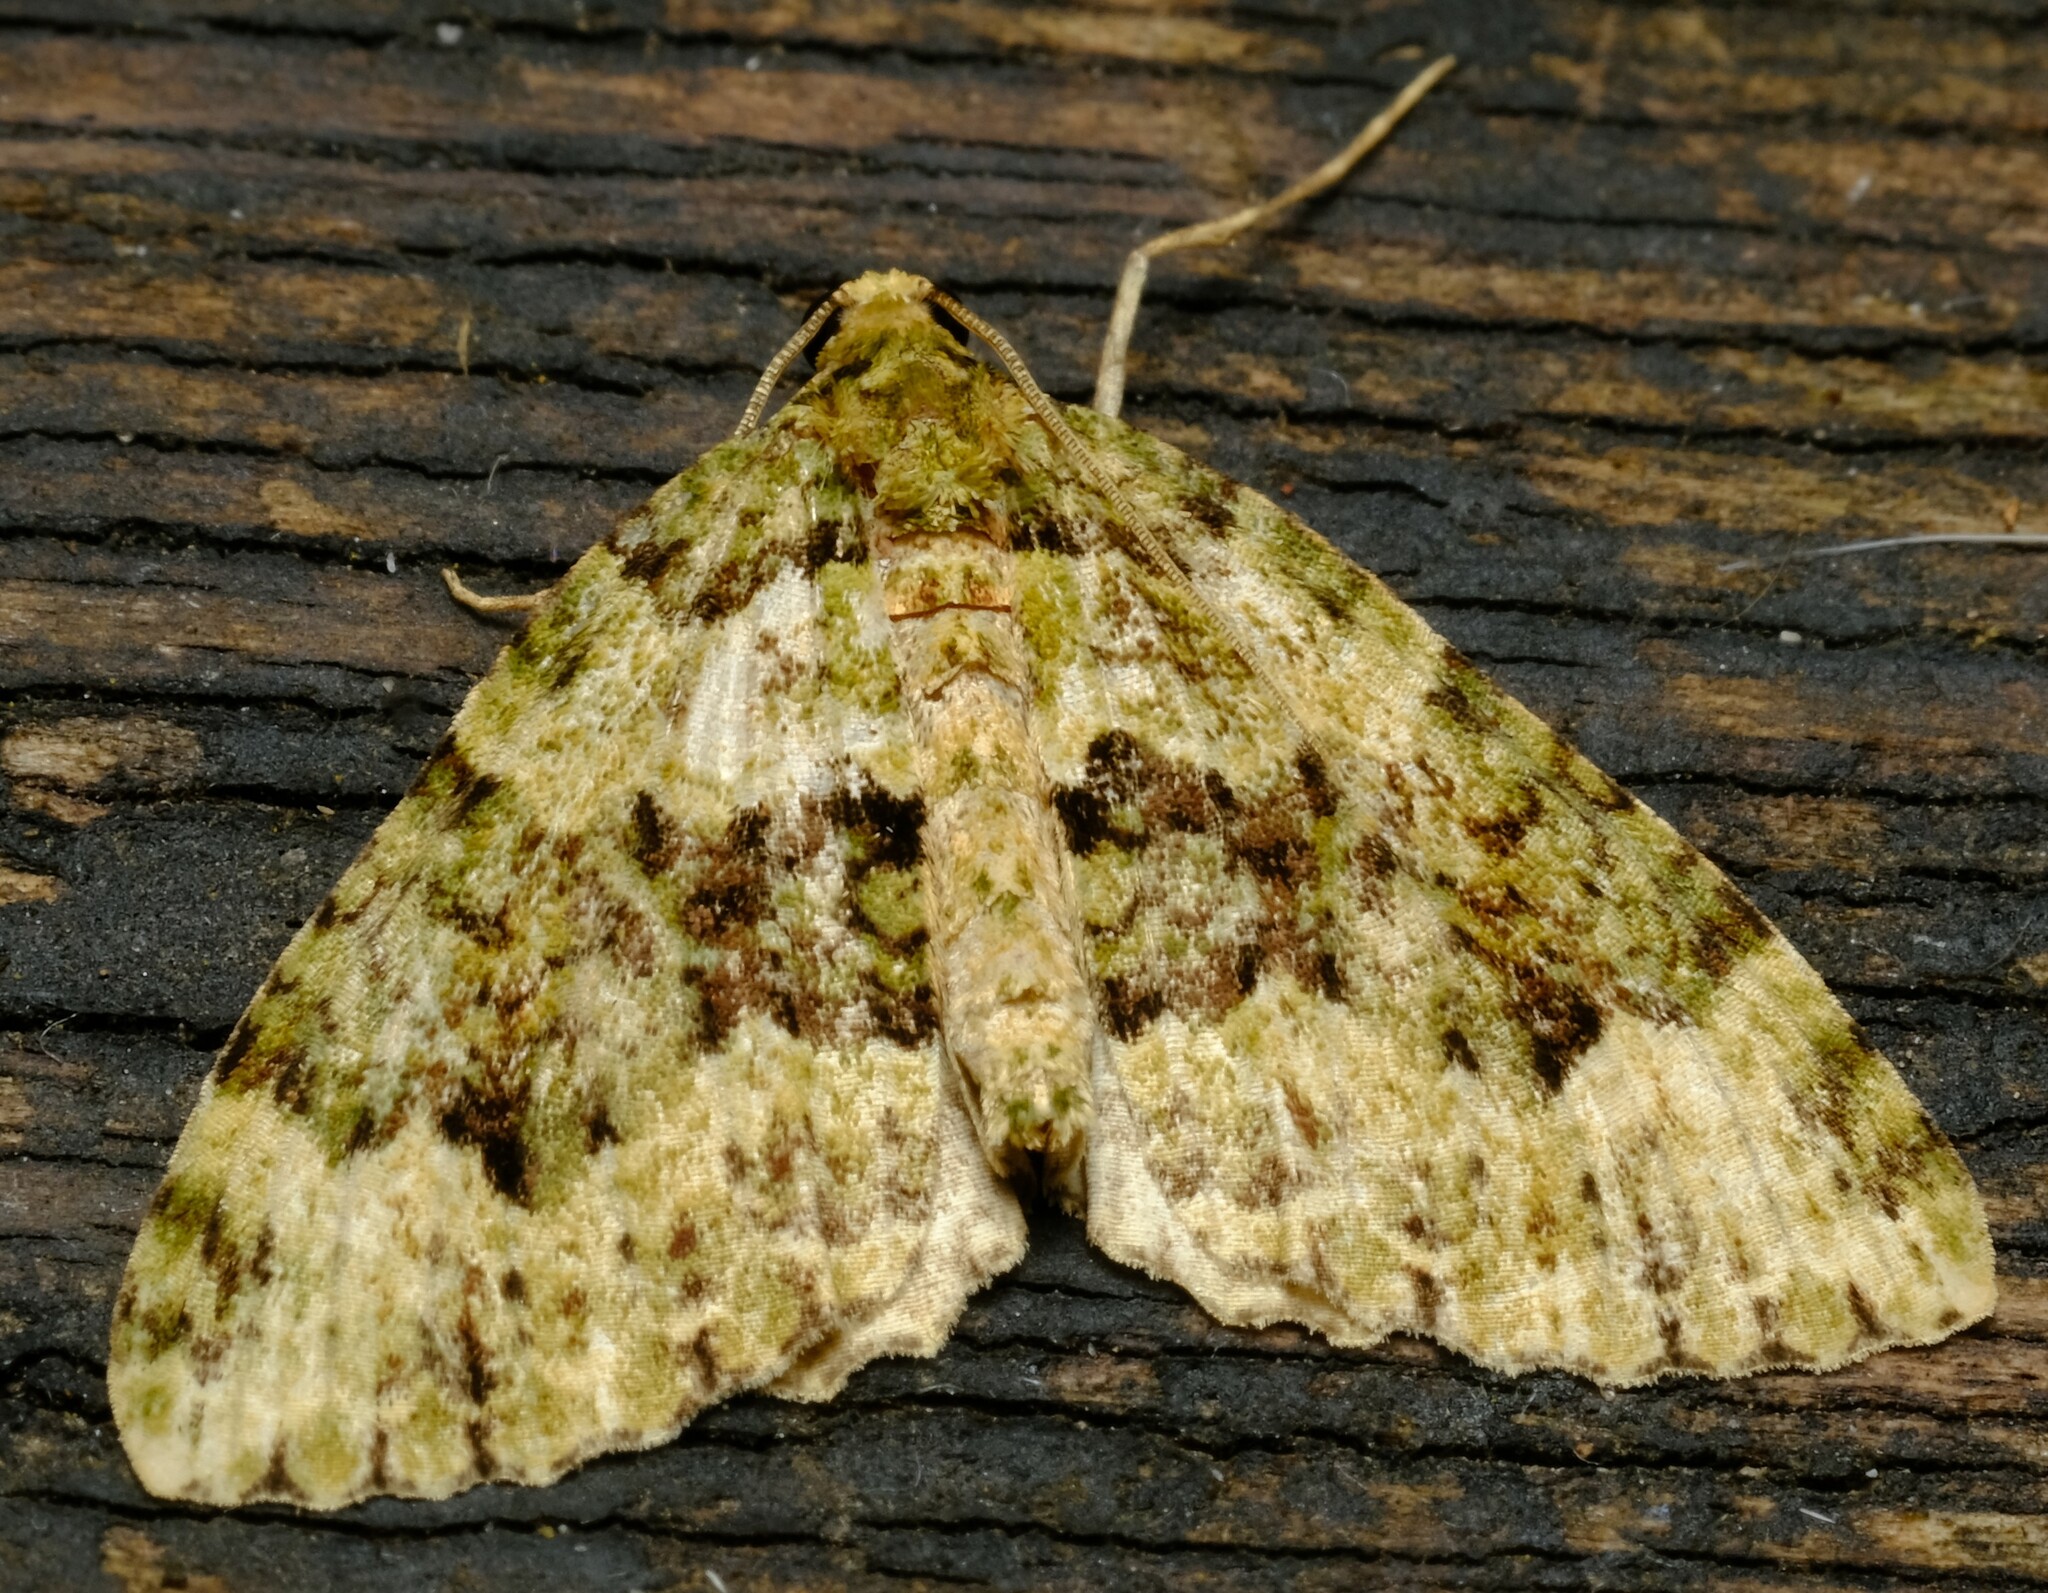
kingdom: Animalia
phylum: Arthropoda
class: Insecta
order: Lepidoptera
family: Geometridae
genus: Austrocidaria
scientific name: Austrocidaria erasta
